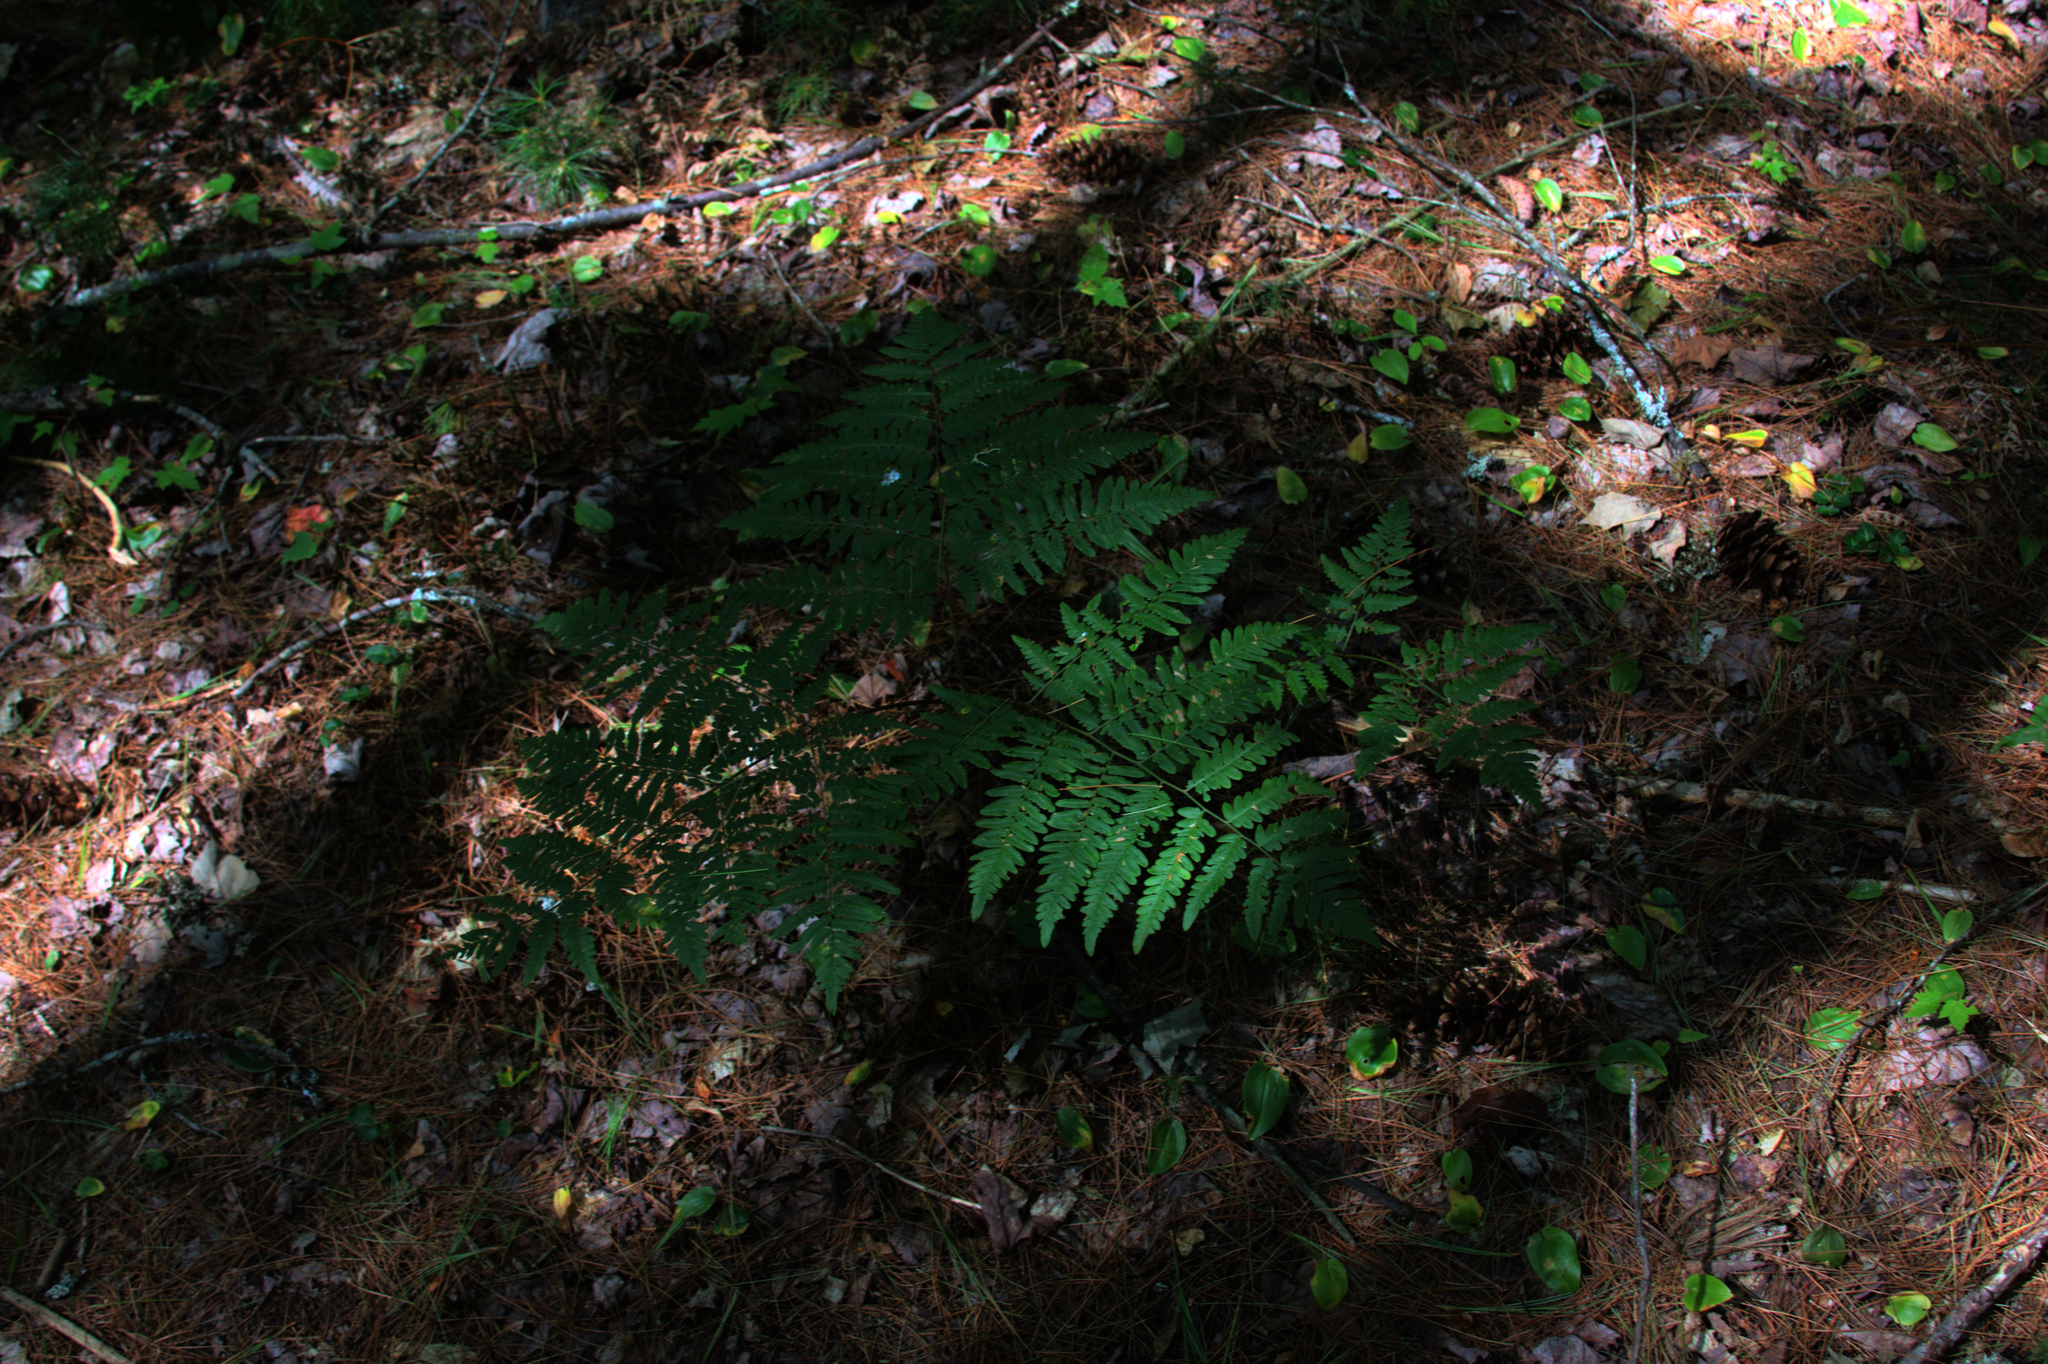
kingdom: Plantae
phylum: Tracheophyta
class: Polypodiopsida
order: Polypodiales
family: Dennstaedtiaceae
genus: Pteridium
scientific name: Pteridium aquilinum
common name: Bracken
